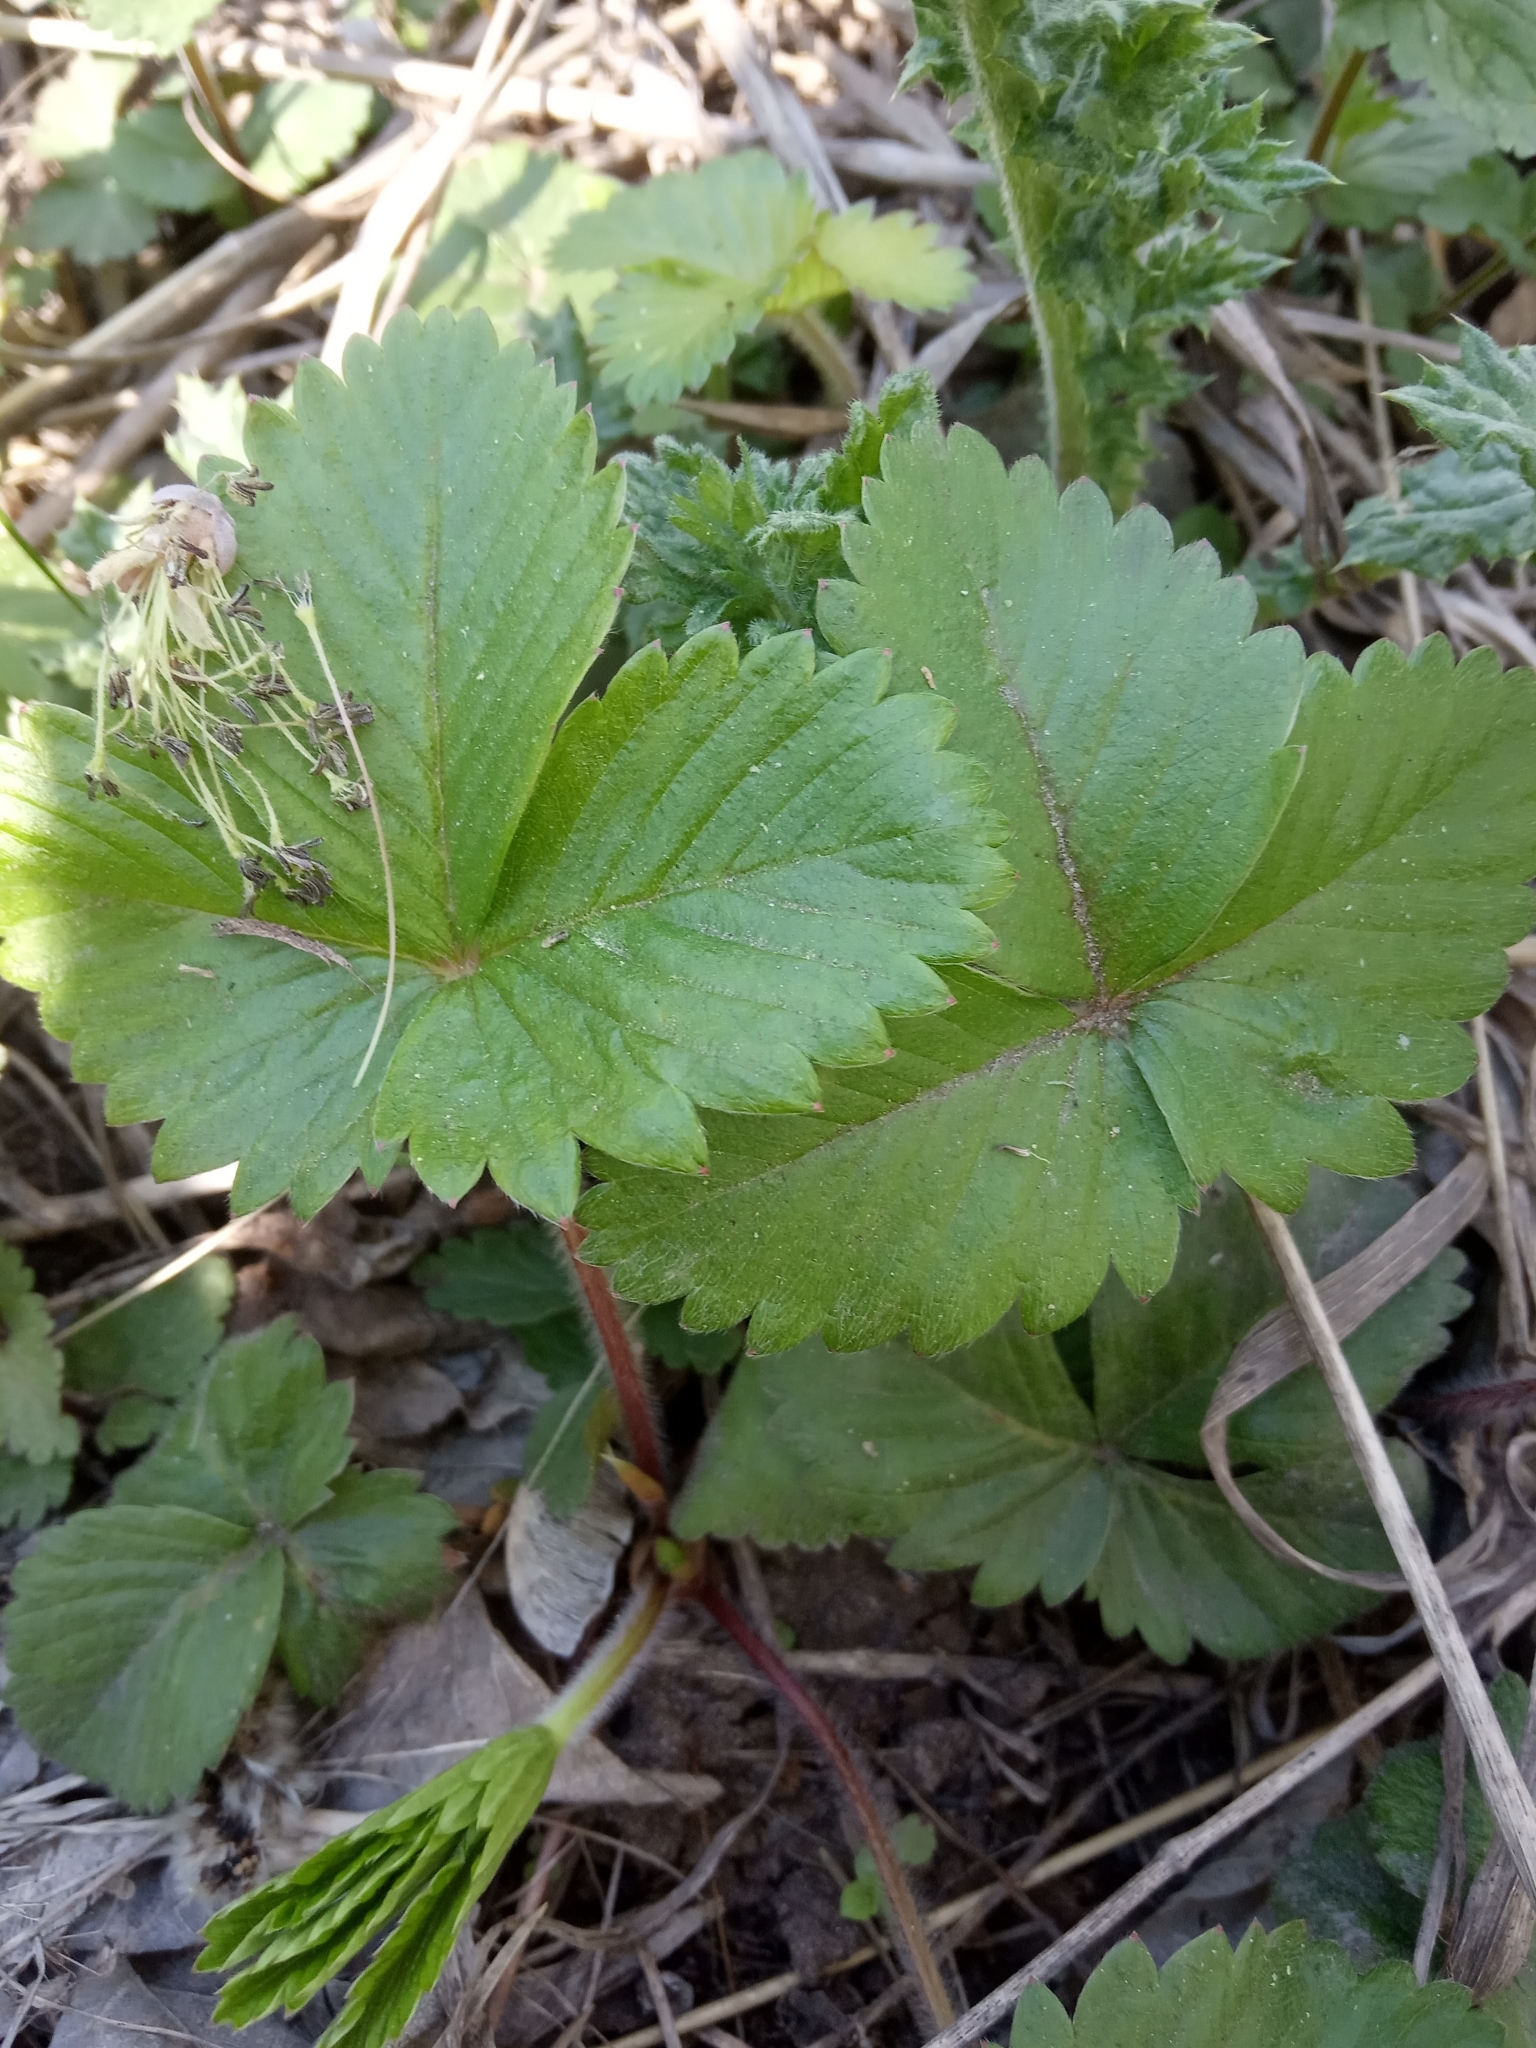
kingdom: Plantae
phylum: Tracheophyta
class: Magnoliopsida
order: Rosales
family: Rosaceae
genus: Fragaria
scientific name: Fragaria vesca
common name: Wild strawberry
